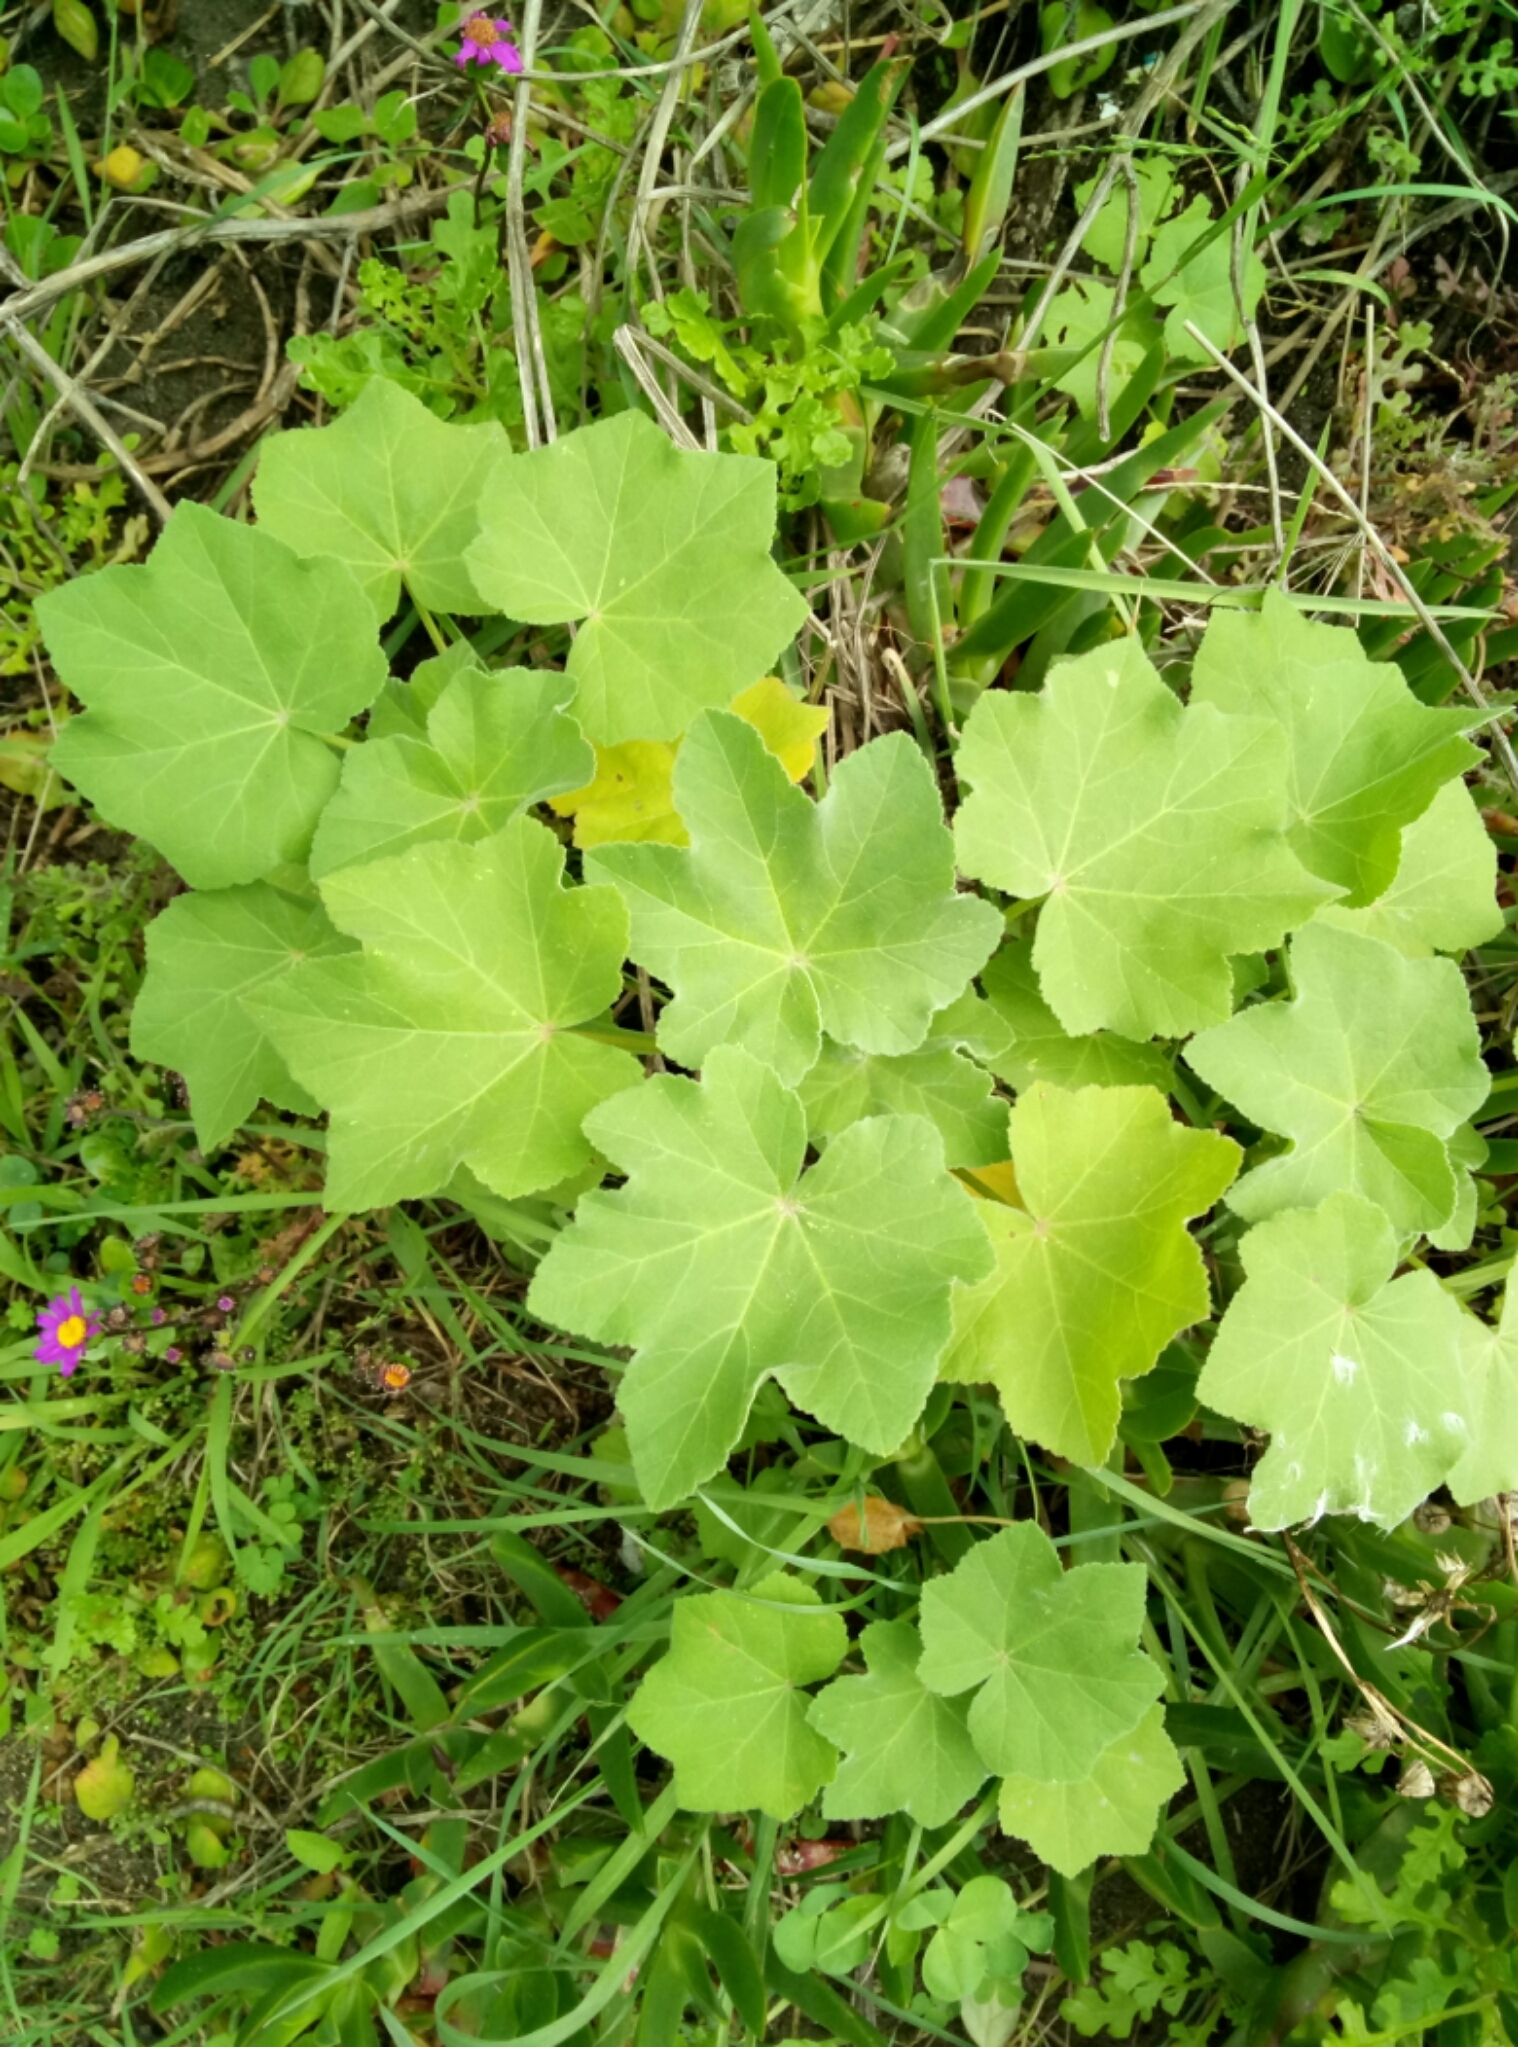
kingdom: Plantae
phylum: Tracheophyta
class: Magnoliopsida
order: Malvales
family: Malvaceae
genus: Malva
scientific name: Malva arborea
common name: Tree mallow
